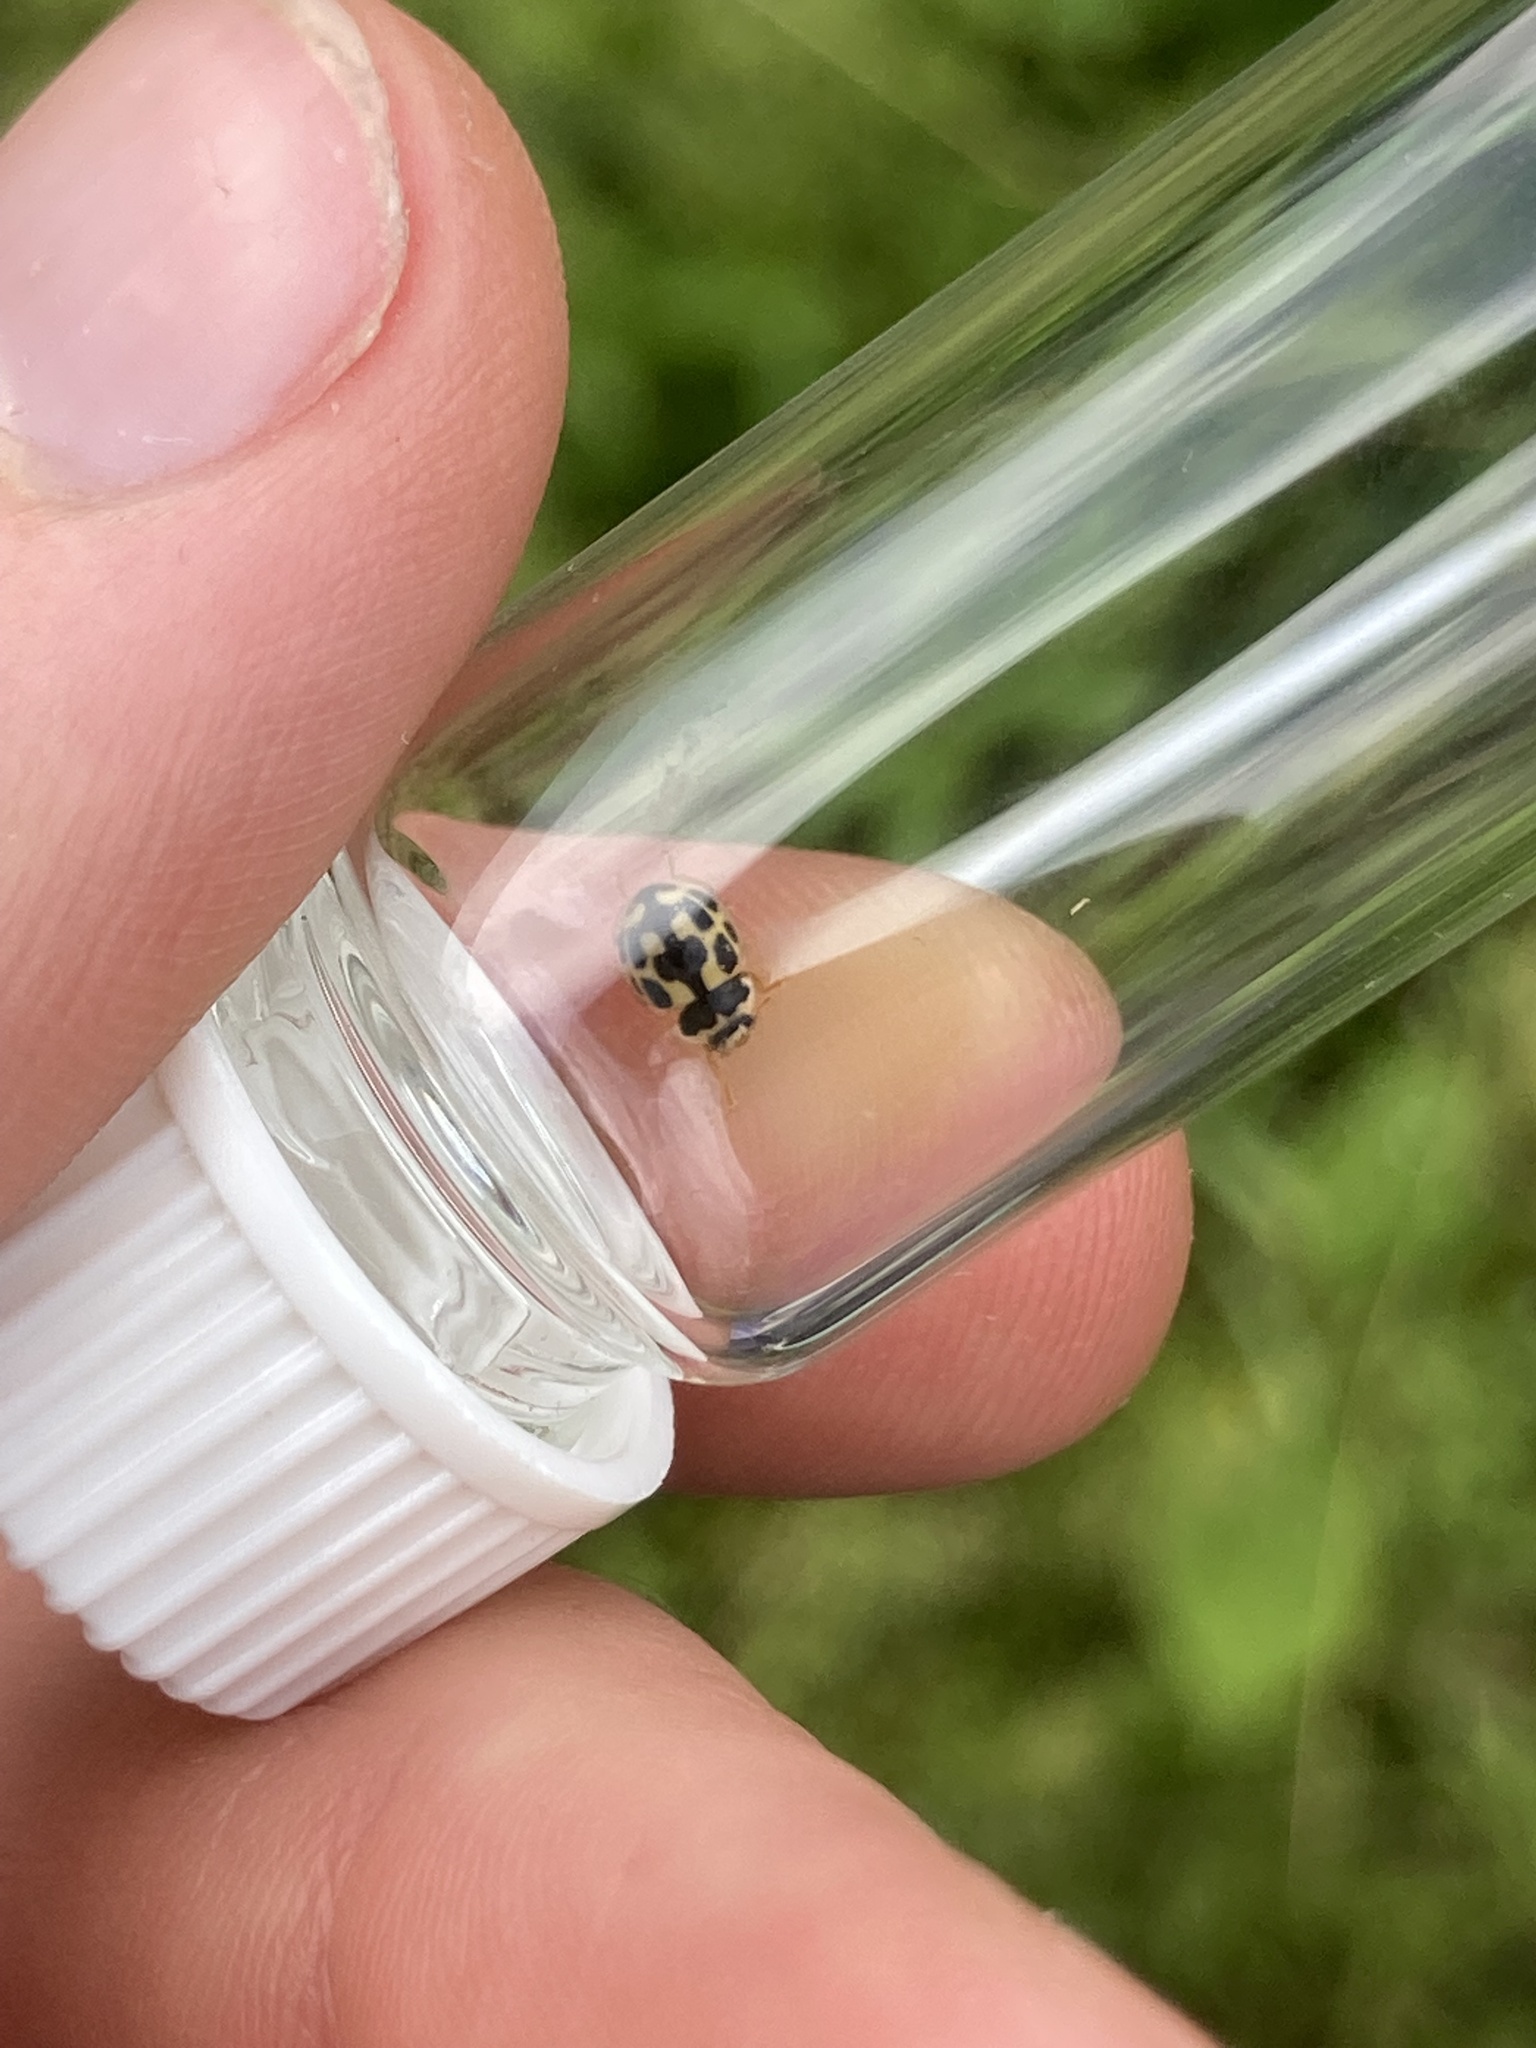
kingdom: Animalia
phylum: Arthropoda
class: Insecta
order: Coleoptera
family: Coccinellidae
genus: Propylaea
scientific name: Propylaea quatuordecimpunctata
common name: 14-spotted ladybird beetle
